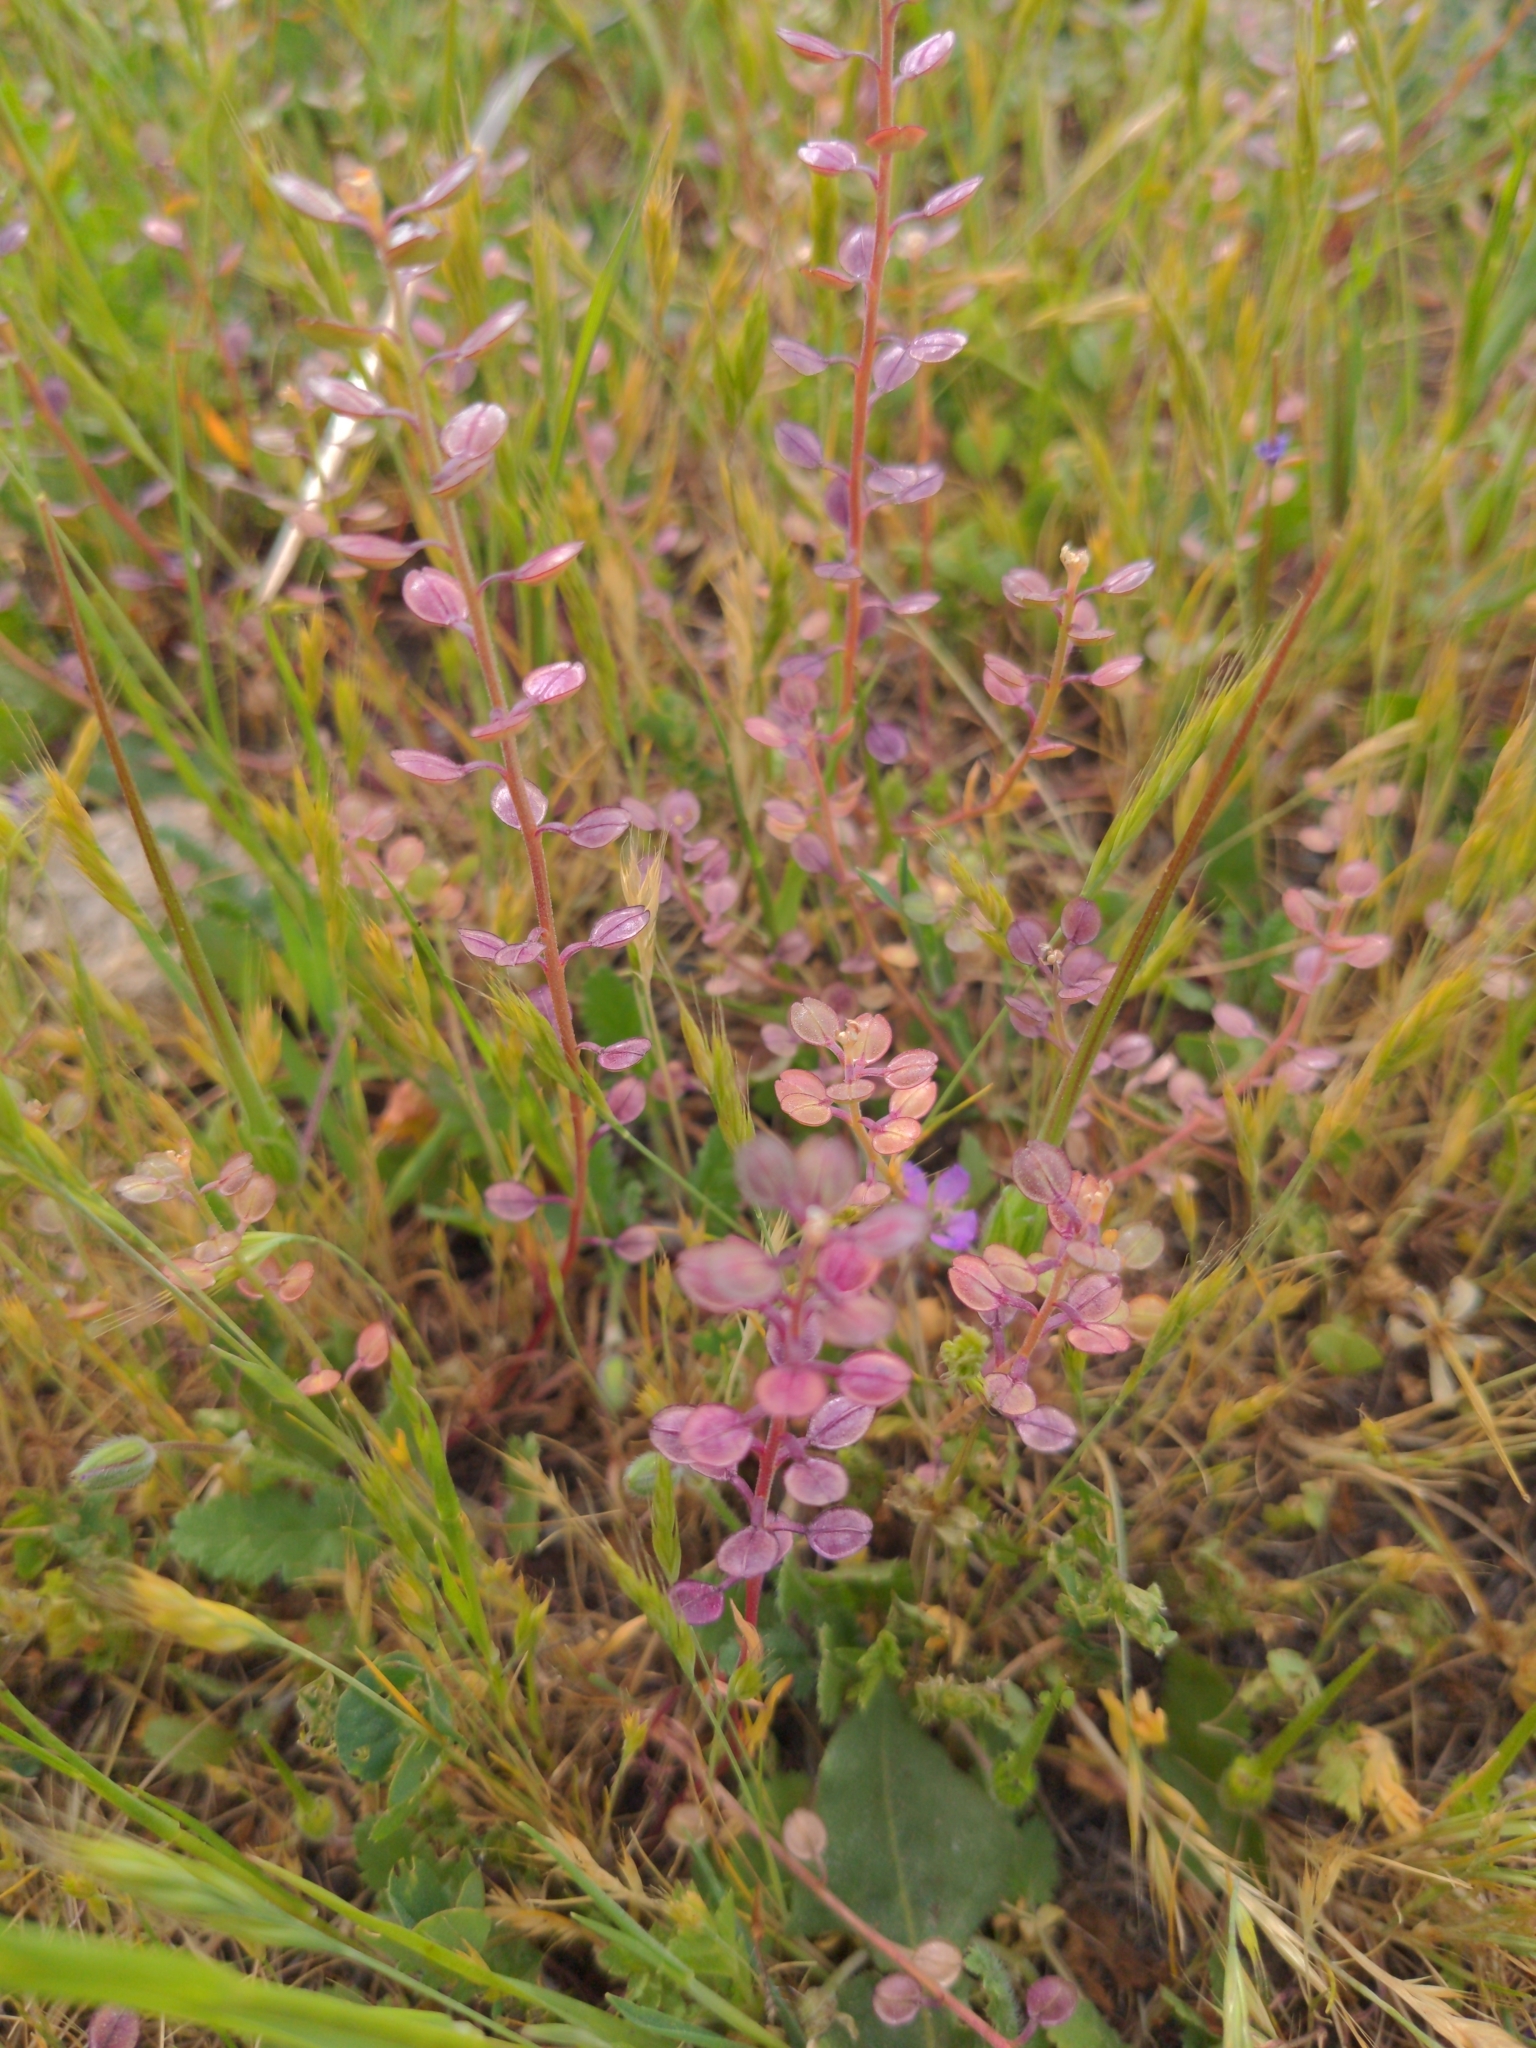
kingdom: Plantae
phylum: Tracheophyta
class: Magnoliopsida
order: Brassicales
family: Brassicaceae
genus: Lepidium
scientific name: Lepidium nitidum
